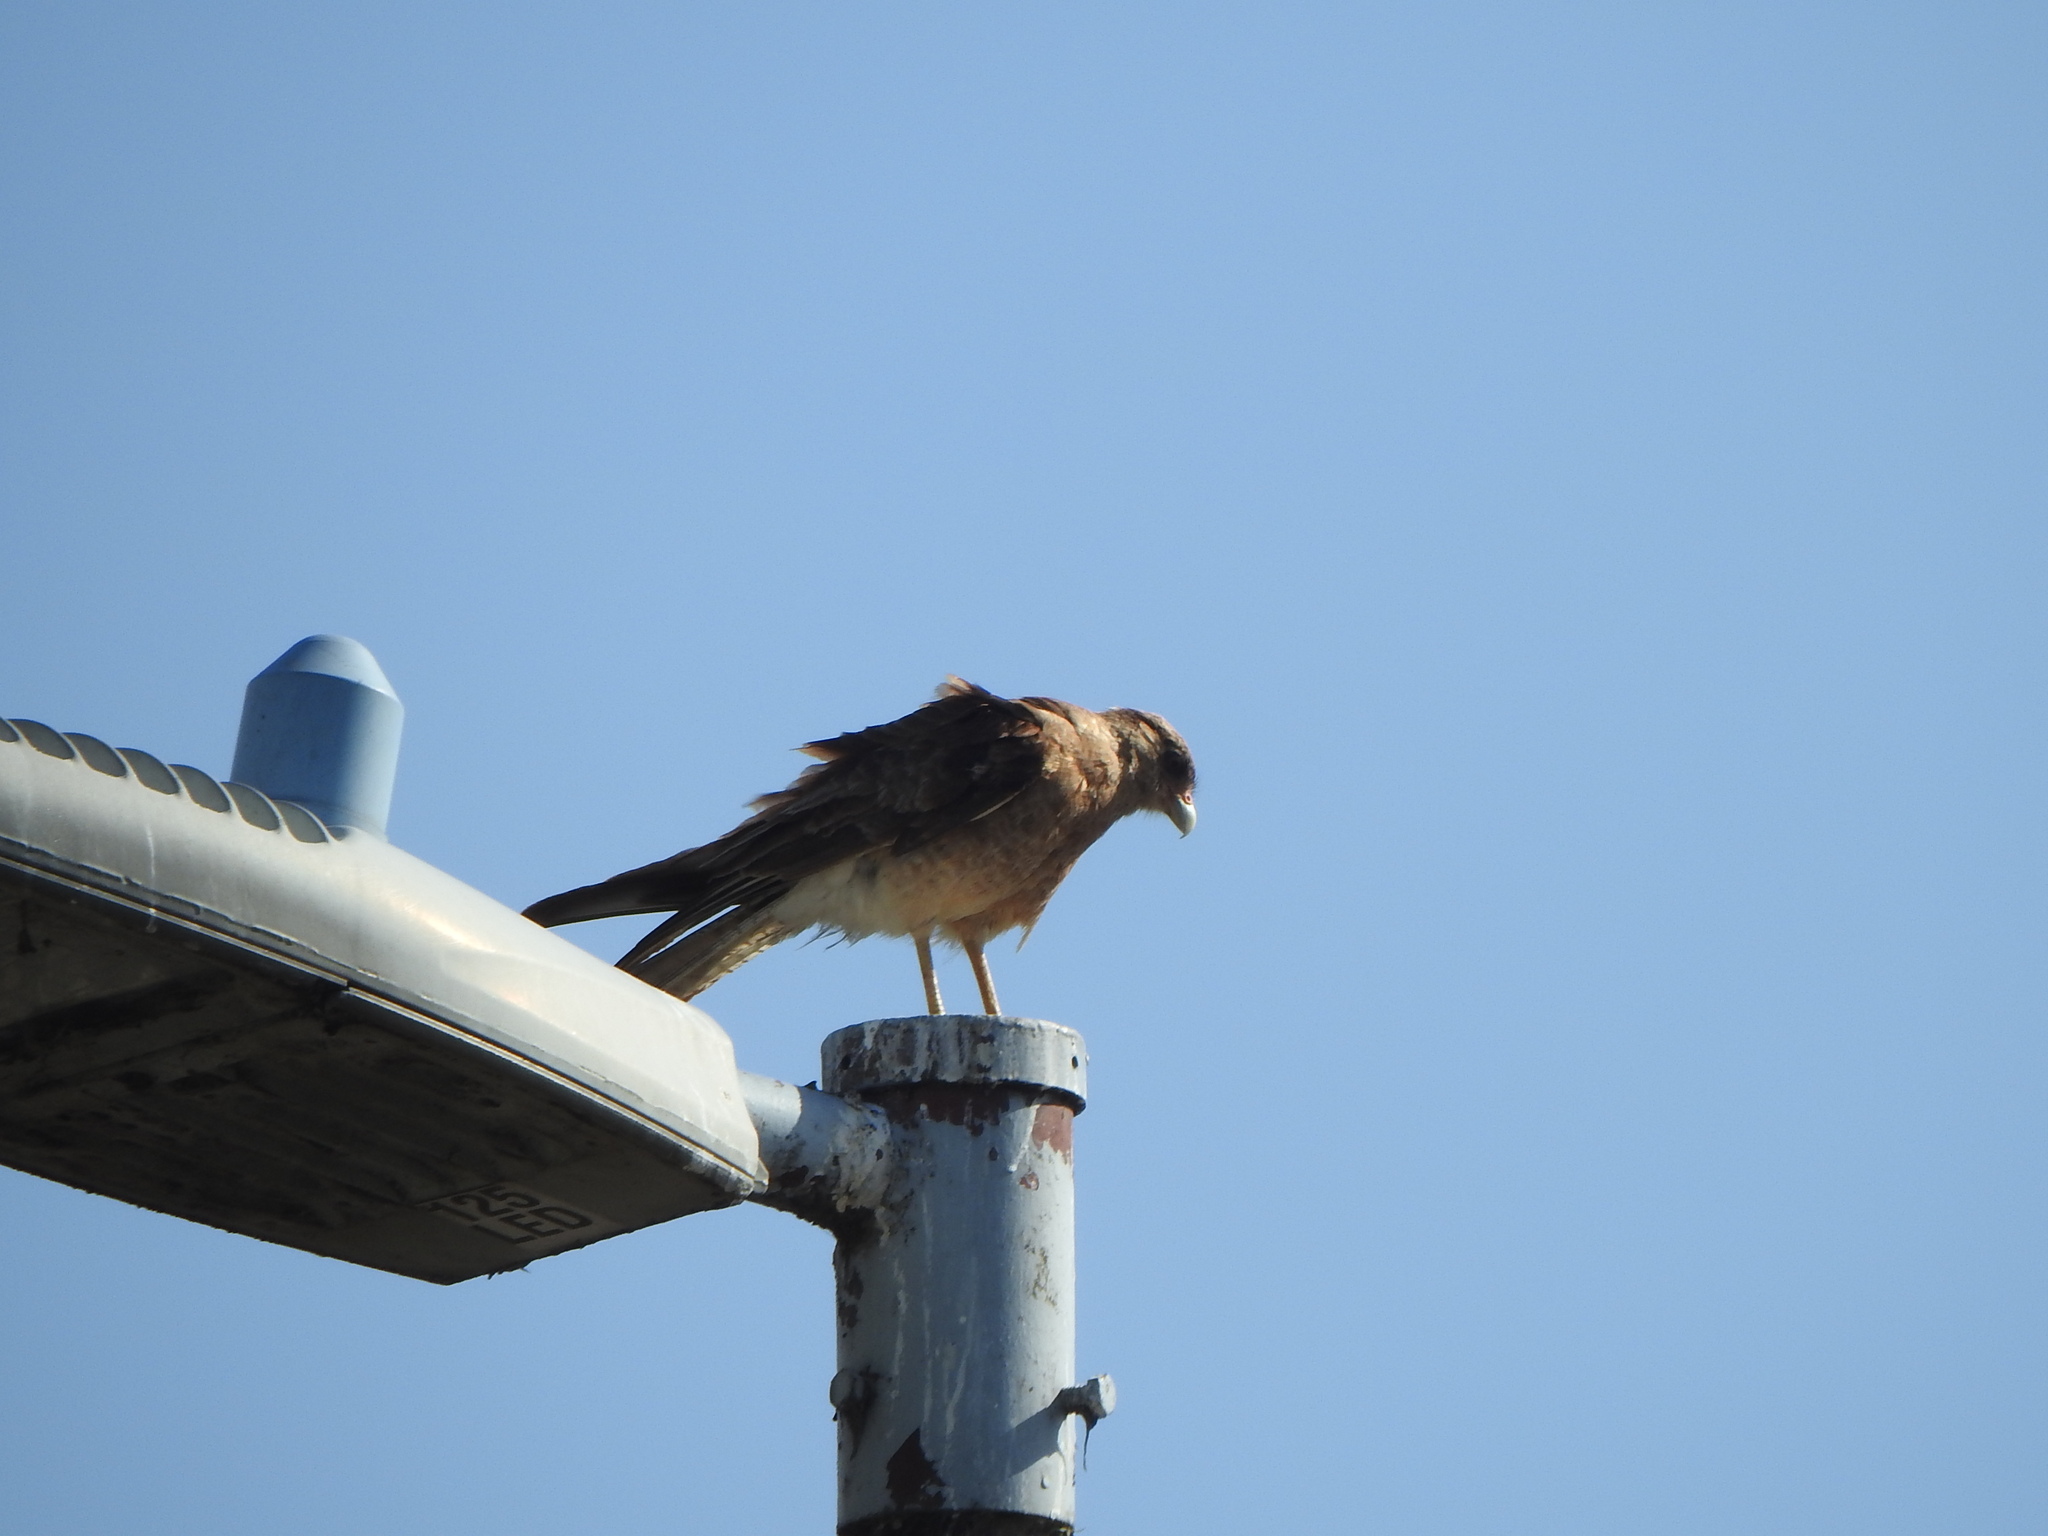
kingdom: Animalia
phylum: Chordata
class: Aves
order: Falconiformes
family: Falconidae
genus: Daptrius
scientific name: Daptrius
